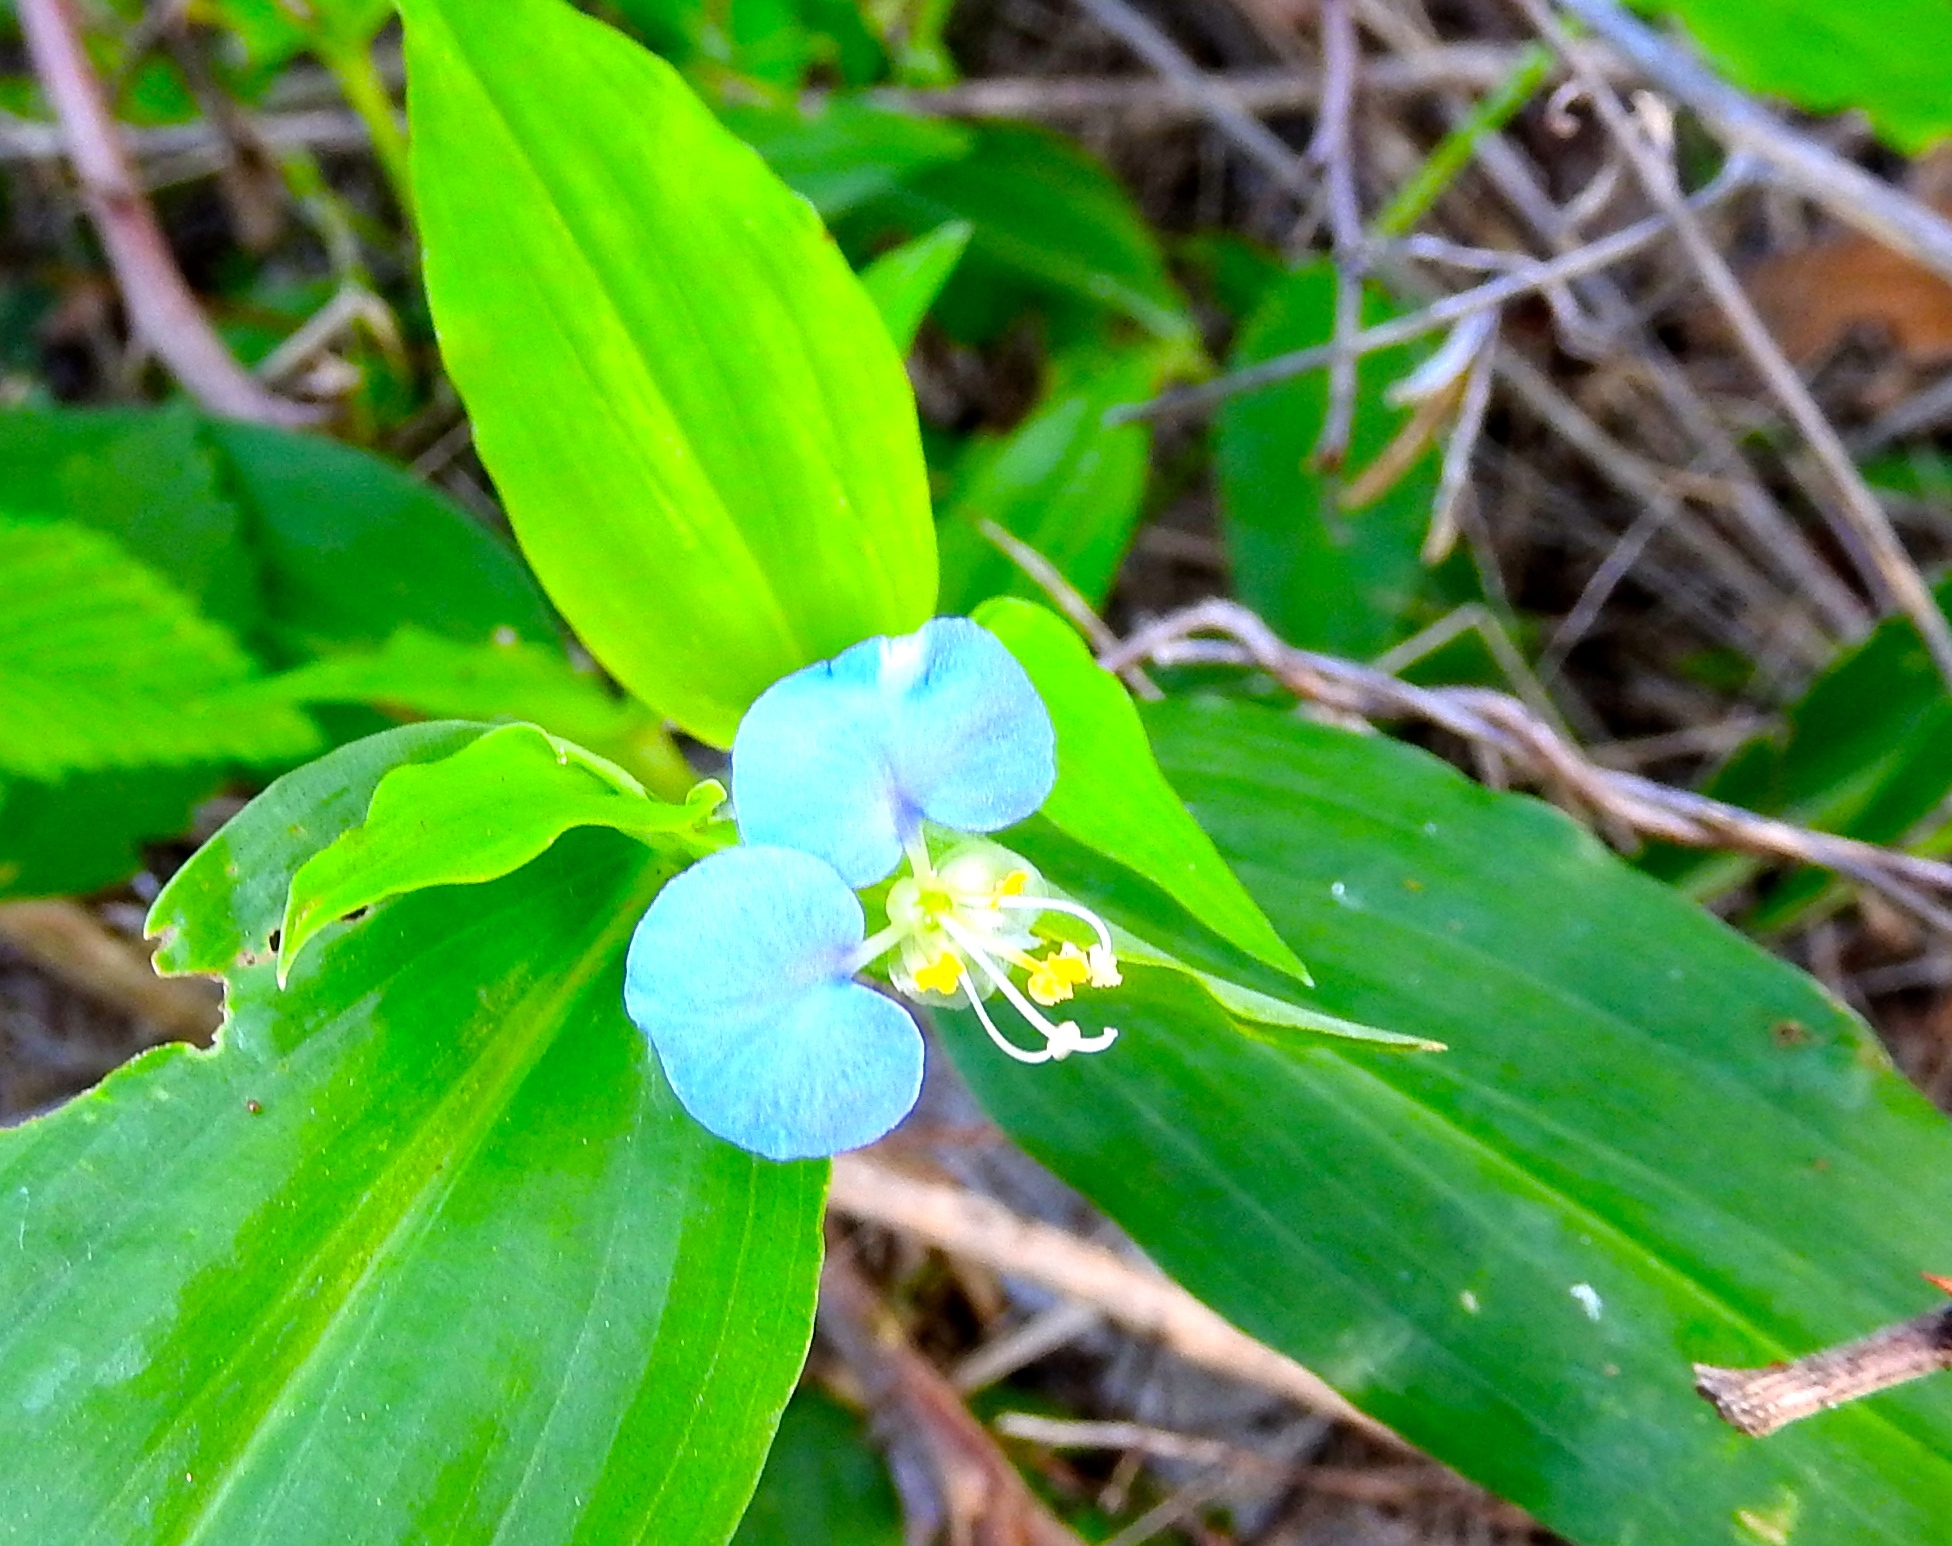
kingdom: Plantae
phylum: Tracheophyta
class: Liliopsida
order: Commelinales
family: Commelinaceae
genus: Commelina
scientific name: Commelina erecta
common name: Blousel blommetjie
